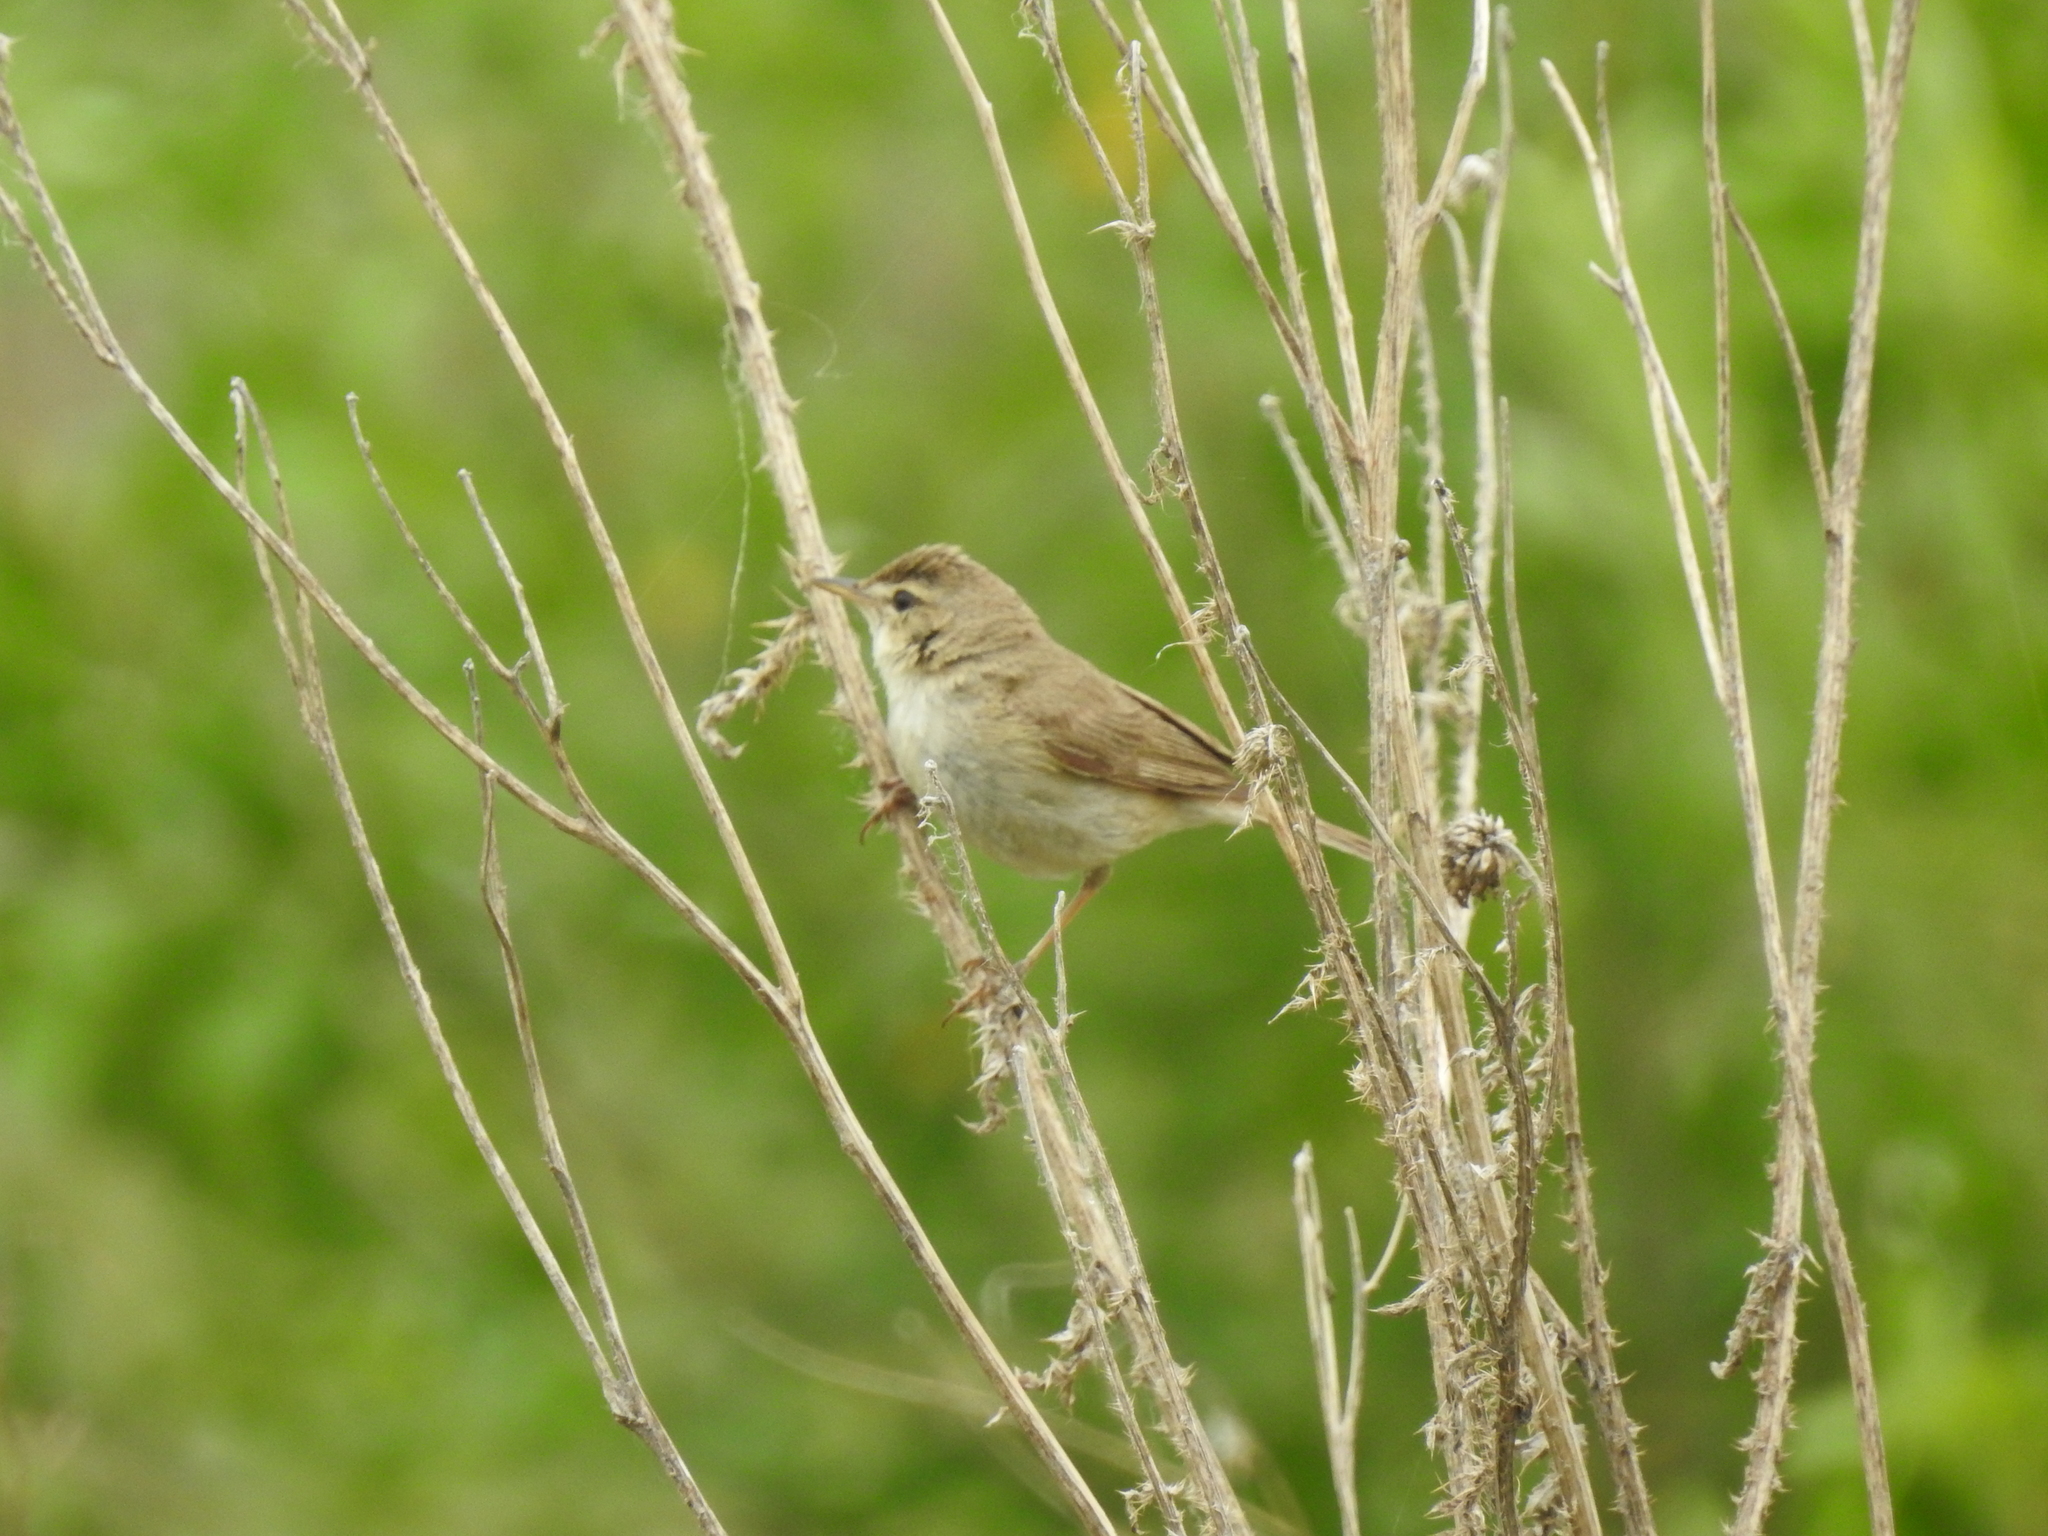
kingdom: Animalia
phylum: Chordata
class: Aves
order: Passeriformes
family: Acrocephalidae
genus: Acrocephalus
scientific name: Acrocephalus dumetorum
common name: Blyth's reed warbler
